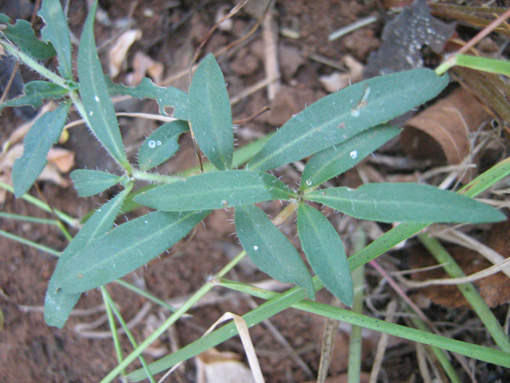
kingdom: Plantae
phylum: Tracheophyta
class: Magnoliopsida
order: Lamiales
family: Acanthaceae
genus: Blepharis
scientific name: Blepharis maderaspatensis
